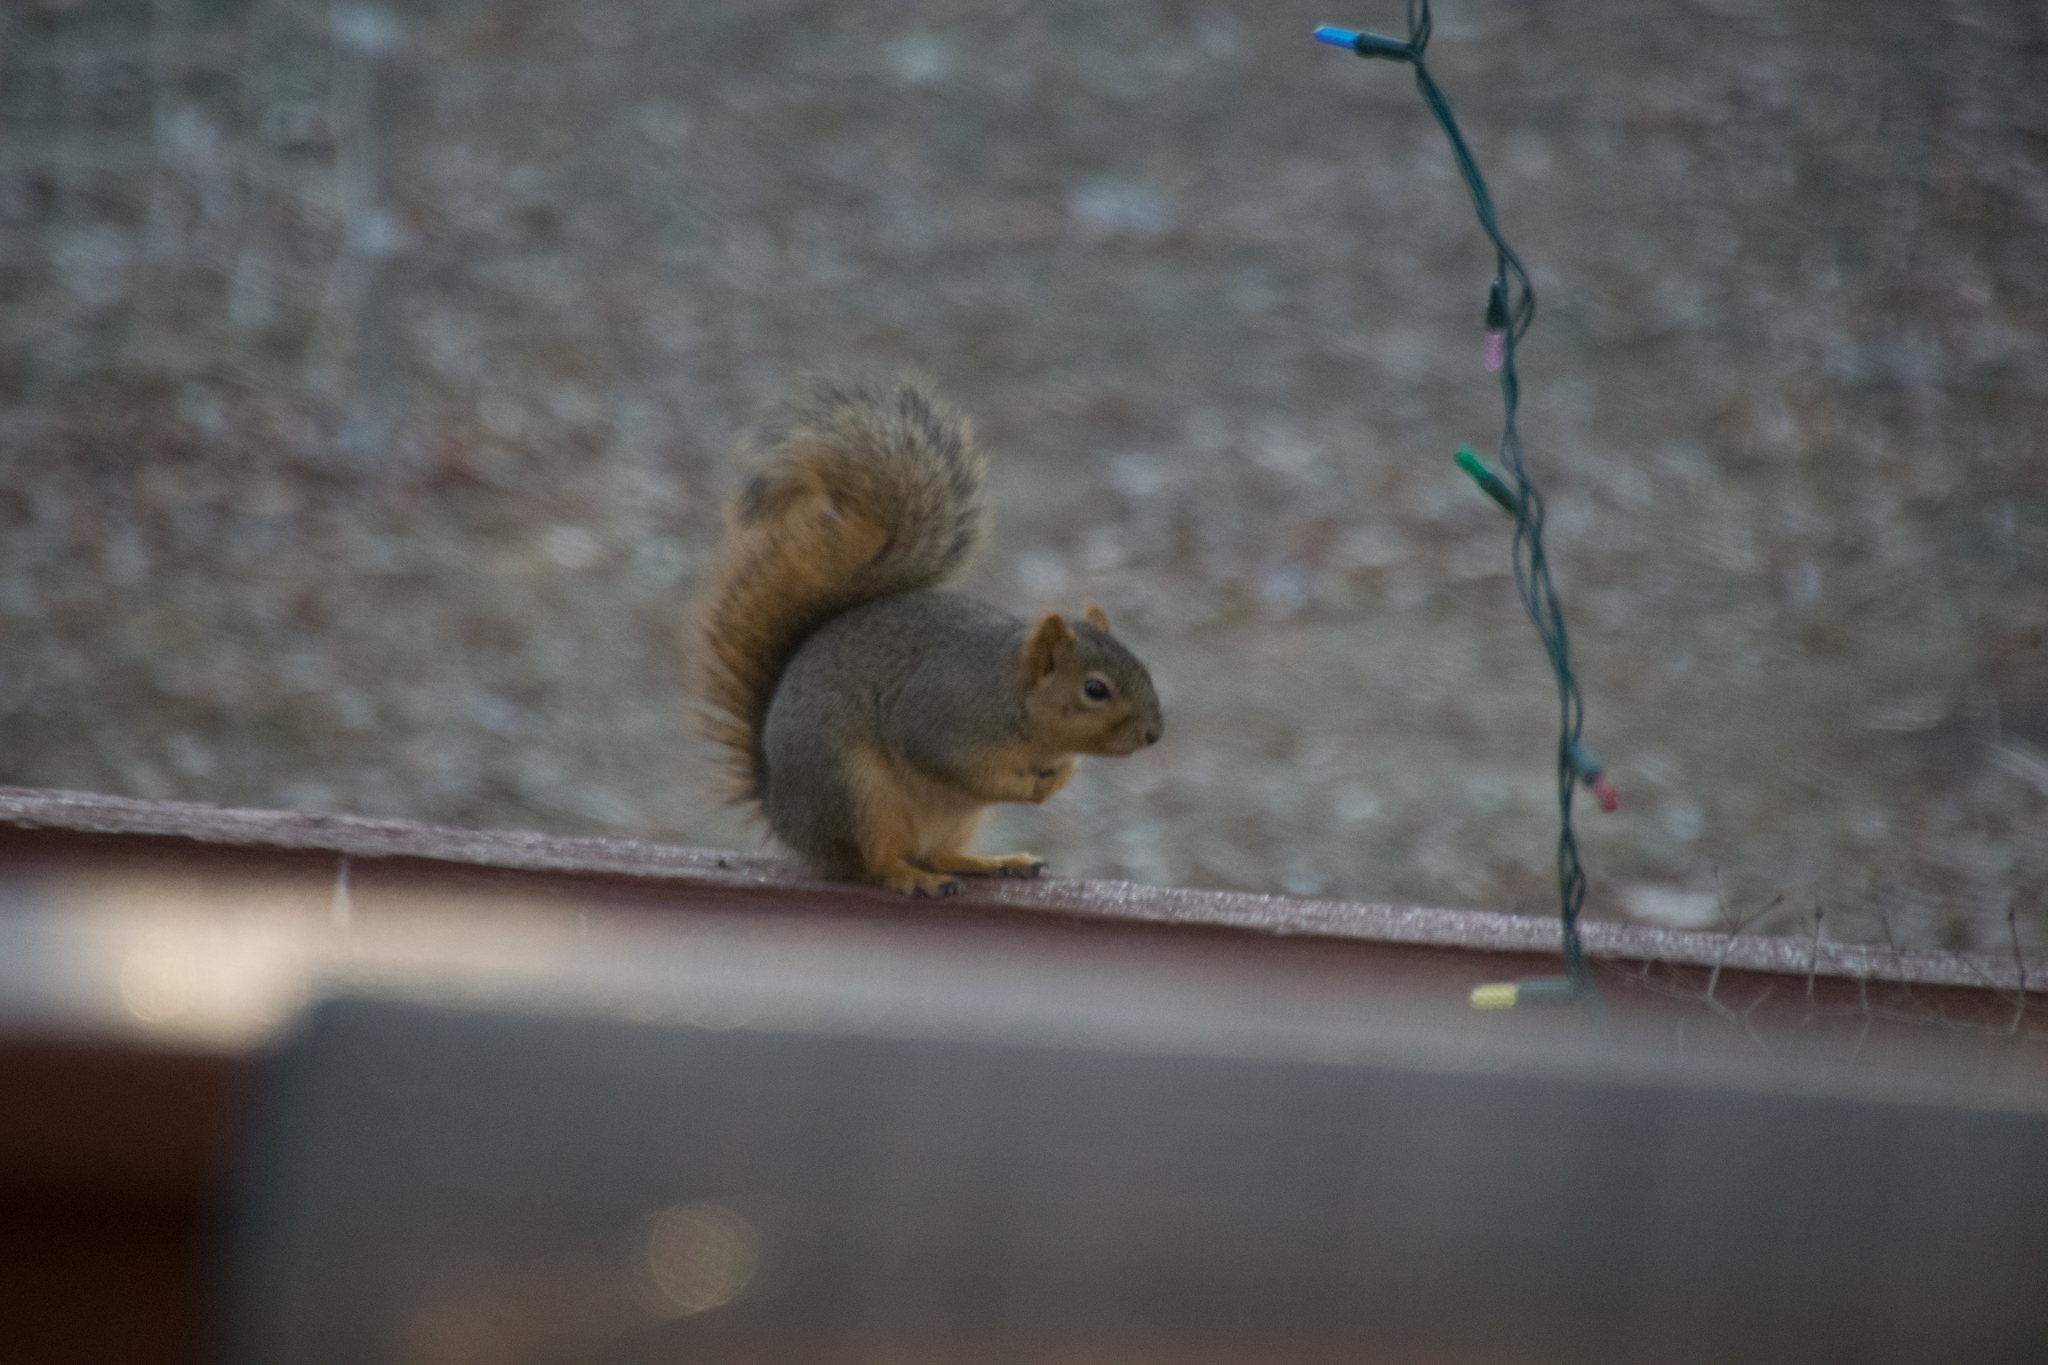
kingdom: Animalia
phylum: Chordata
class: Mammalia
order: Rodentia
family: Sciuridae
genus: Sciurus
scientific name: Sciurus niger
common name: Fox squirrel
